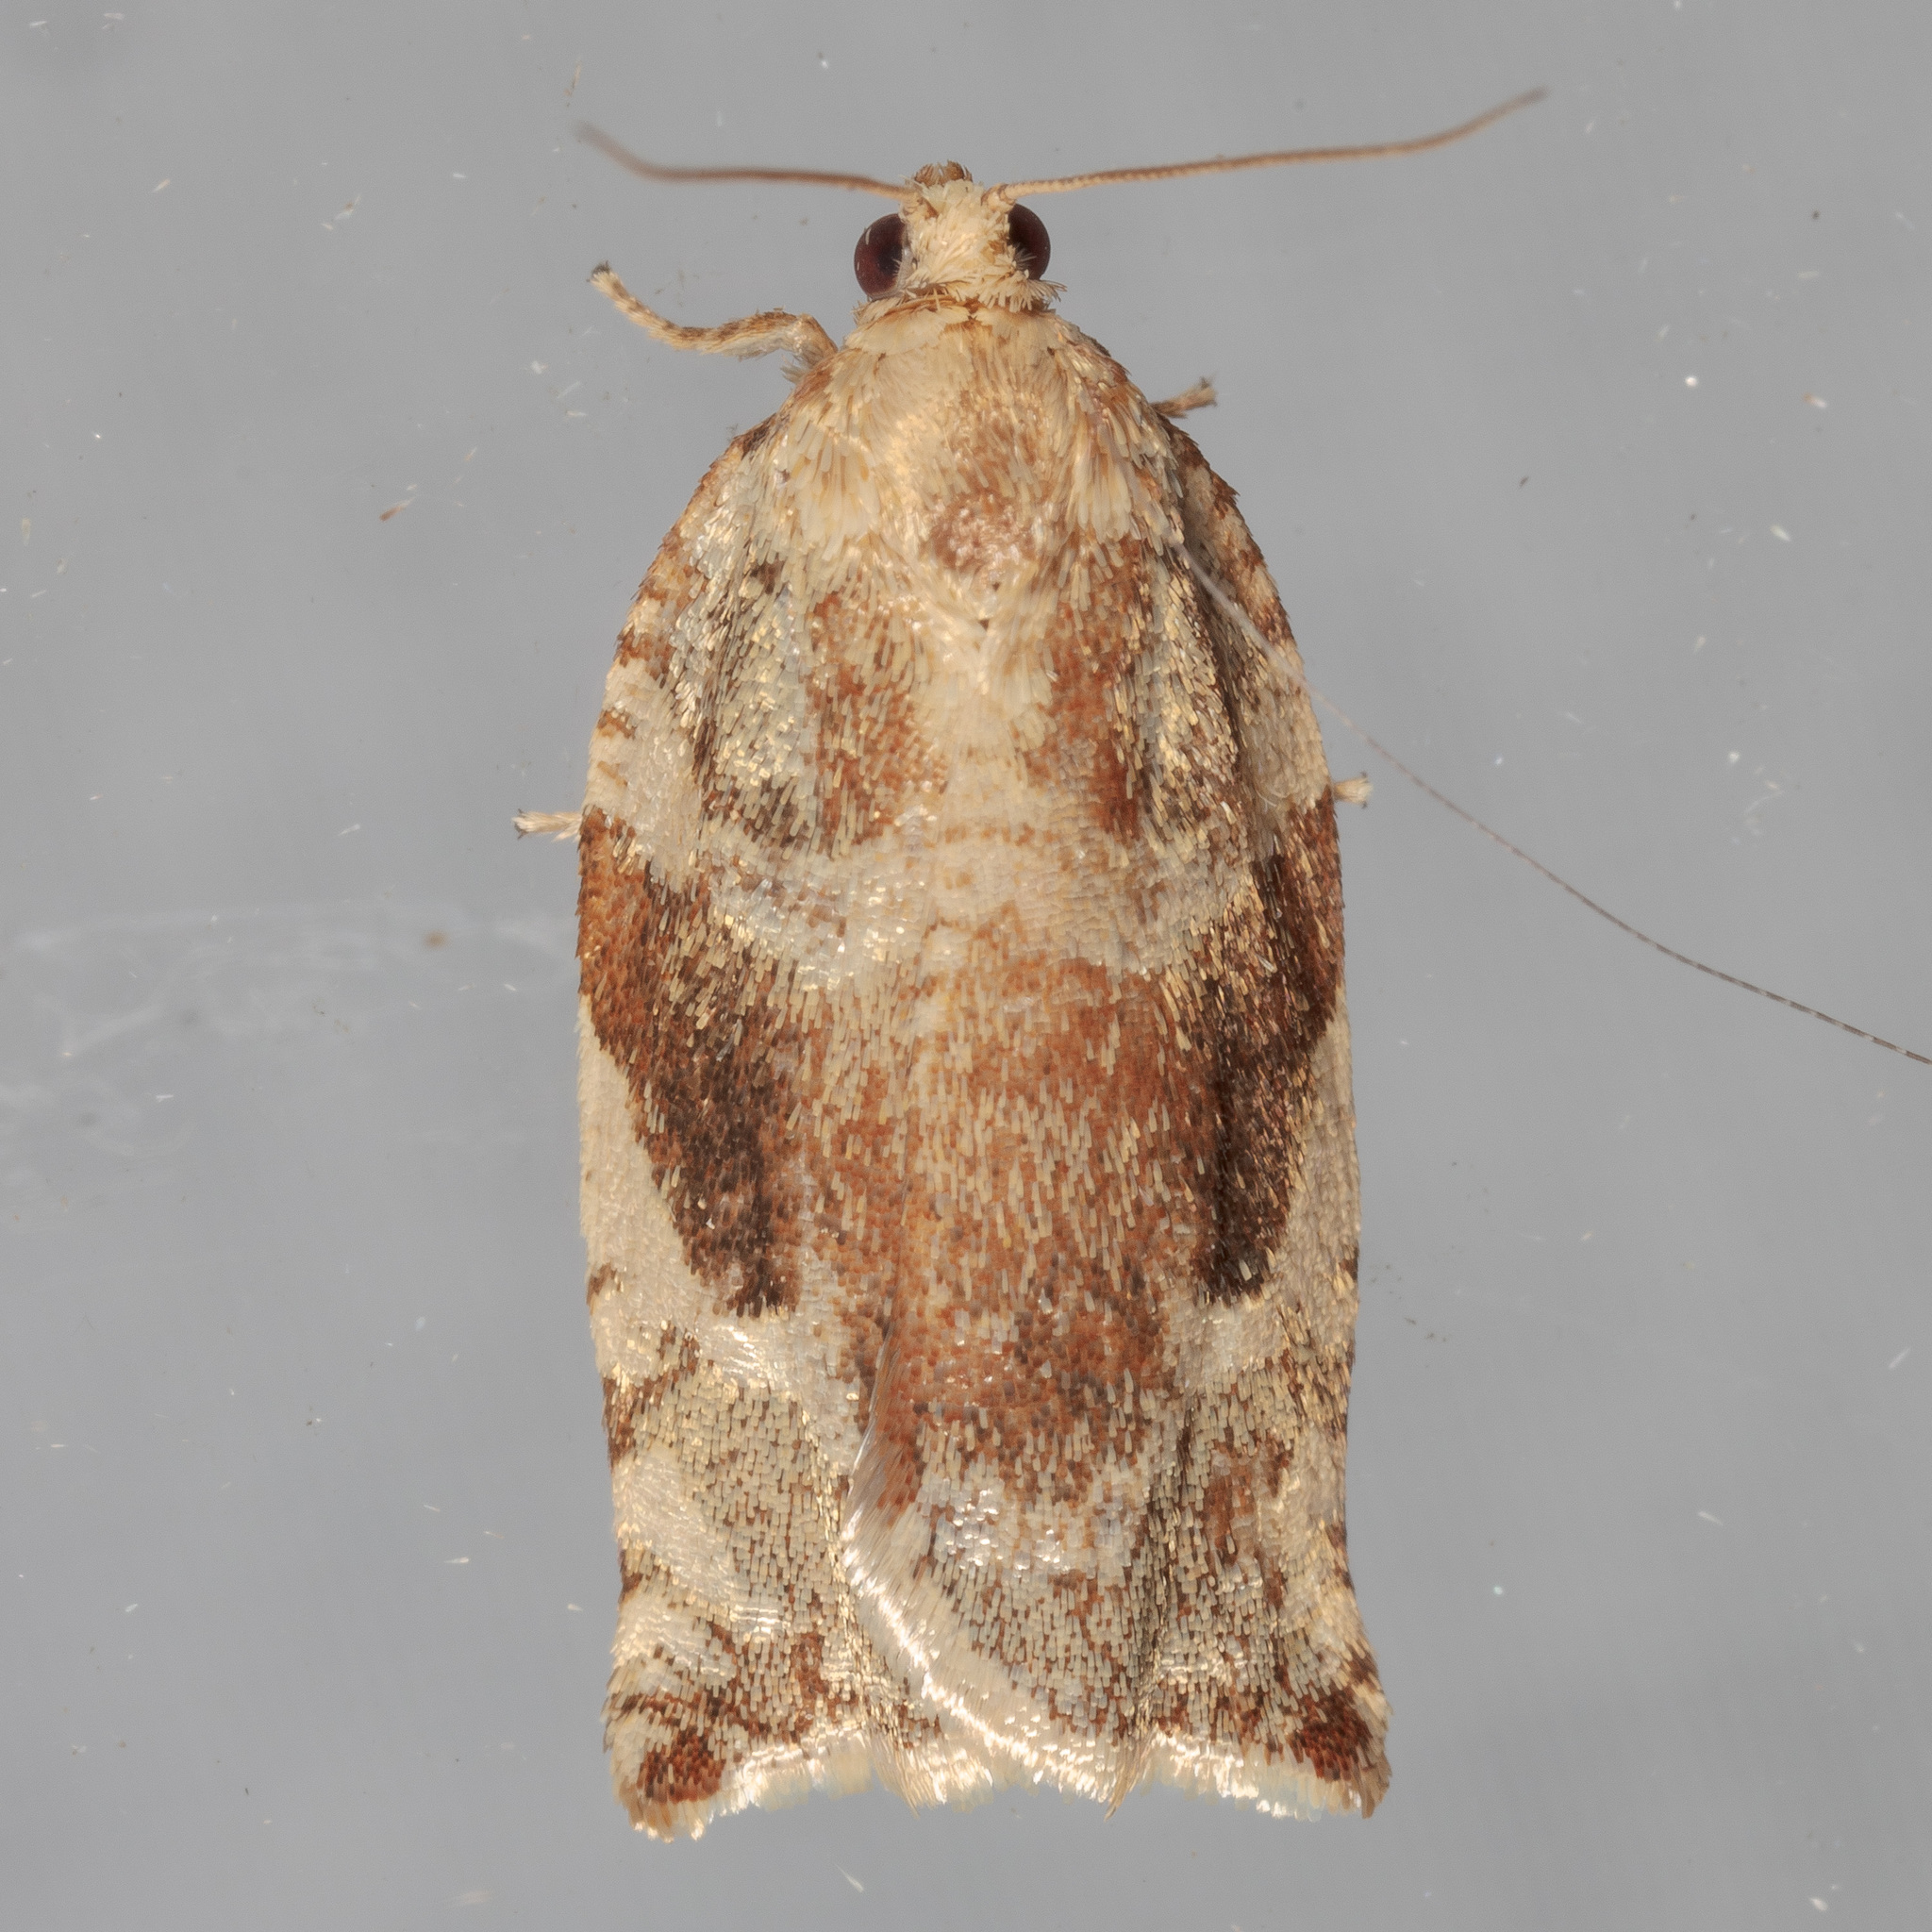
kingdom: Animalia
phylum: Arthropoda
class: Insecta
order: Lepidoptera
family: Tortricidae
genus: Archips
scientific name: Archips semiferanus
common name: Oak leafroller
